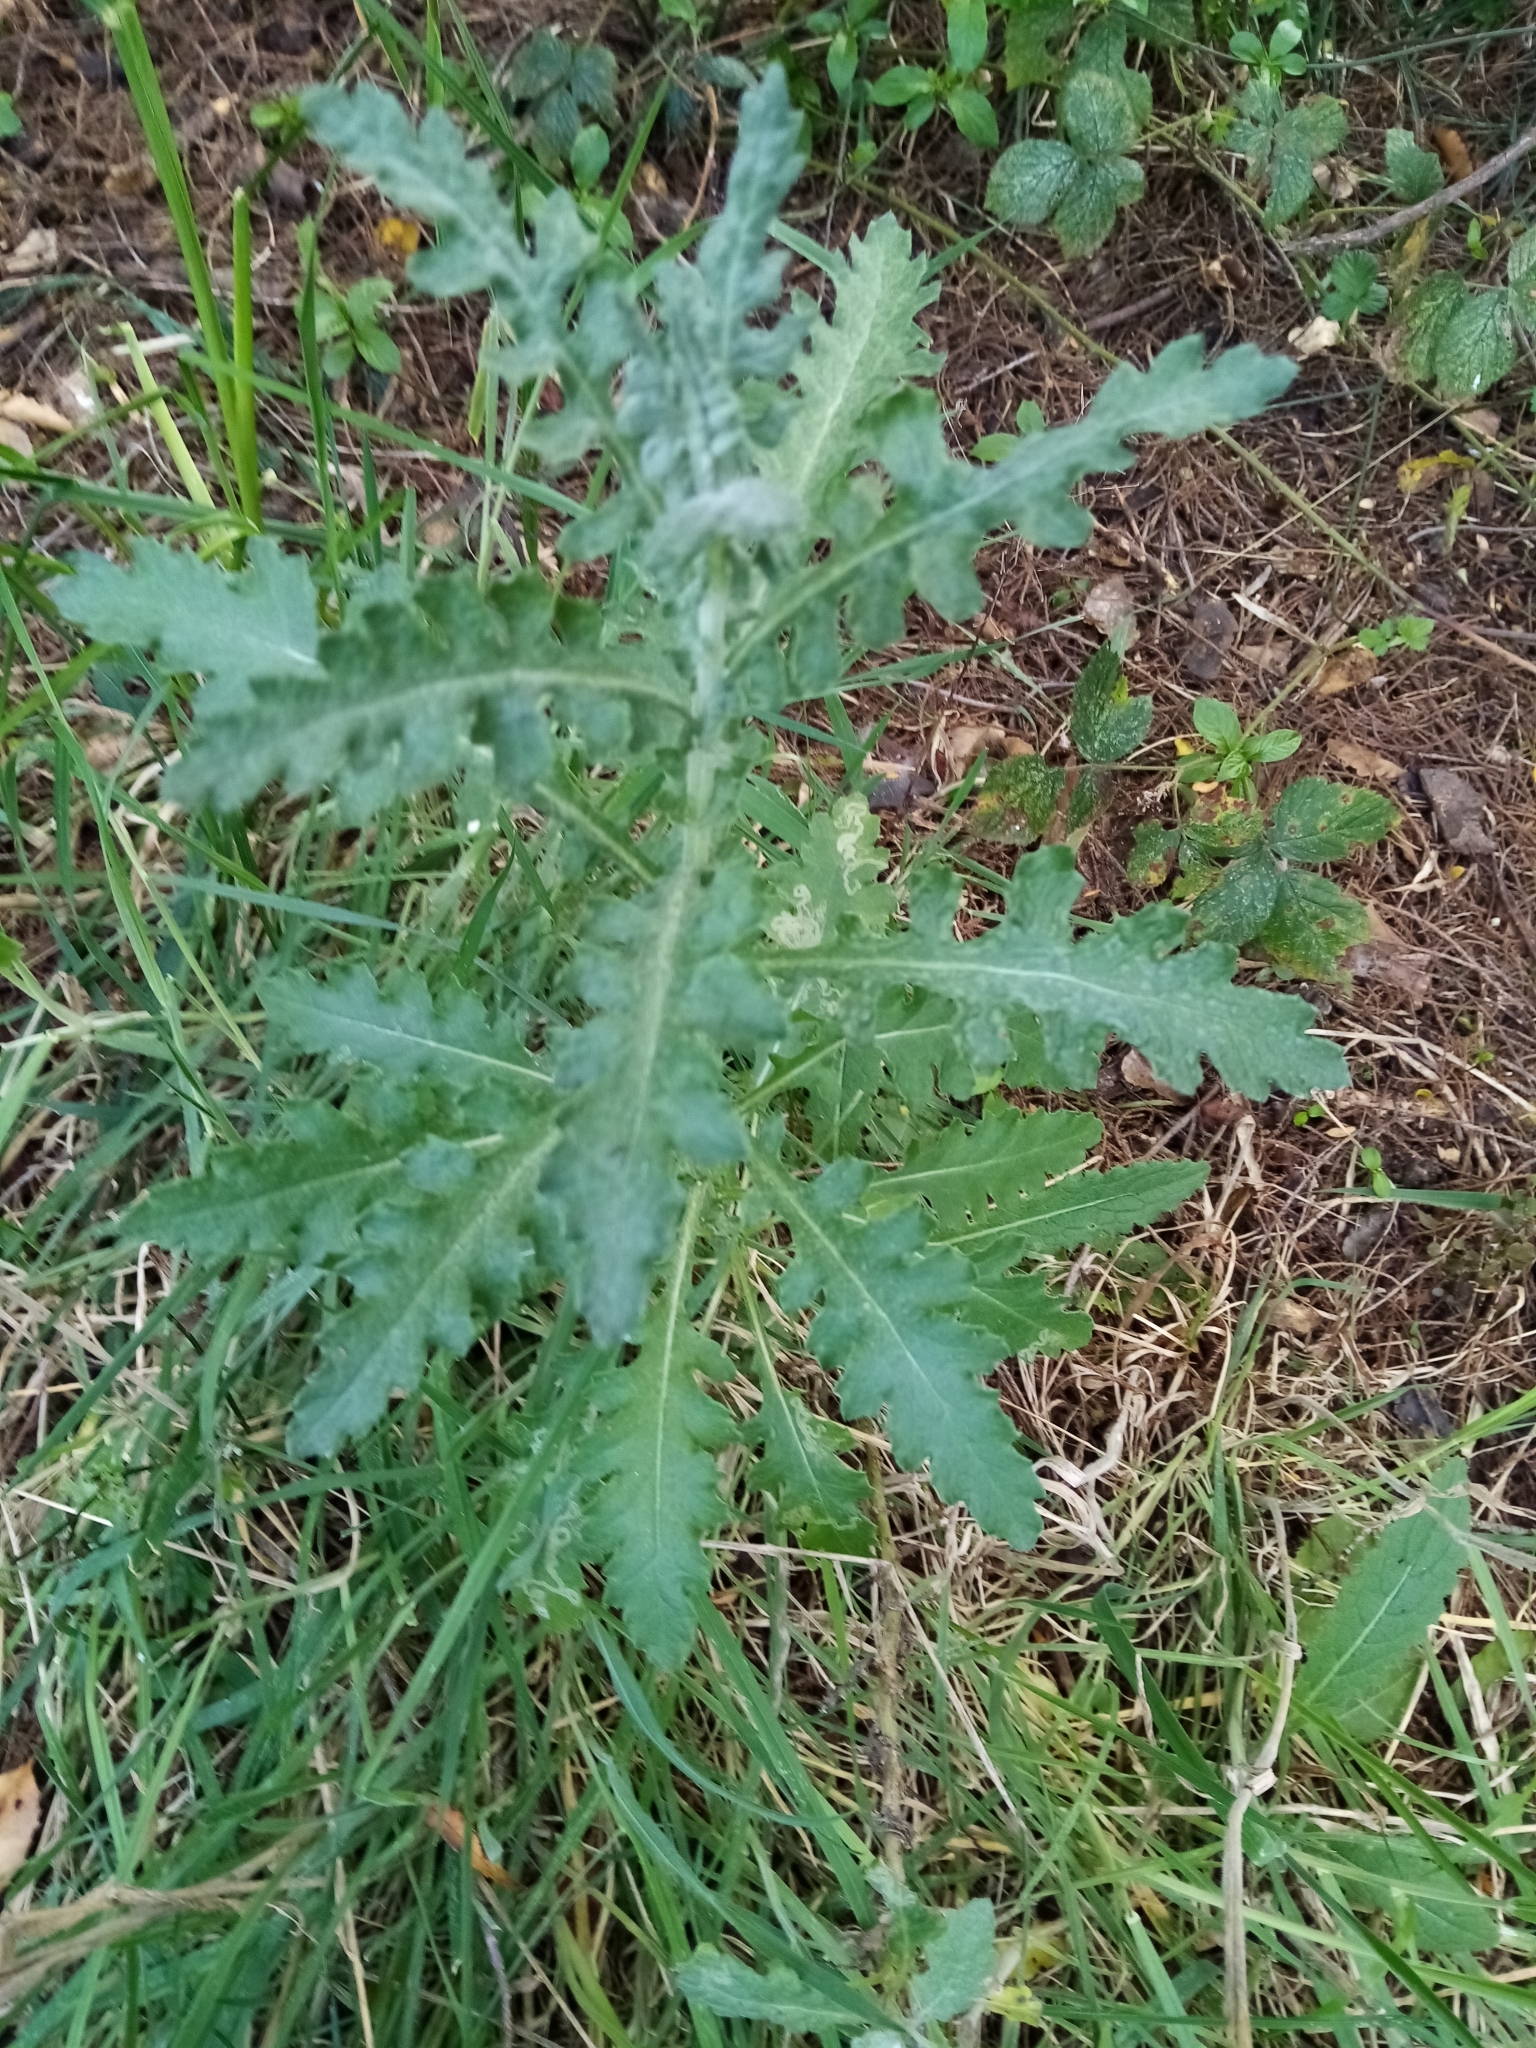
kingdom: Plantae
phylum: Tracheophyta
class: Magnoliopsida
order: Asterales
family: Asteraceae
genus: Senecio
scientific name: Senecio glomeratus
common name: Cutleaf burnweed
